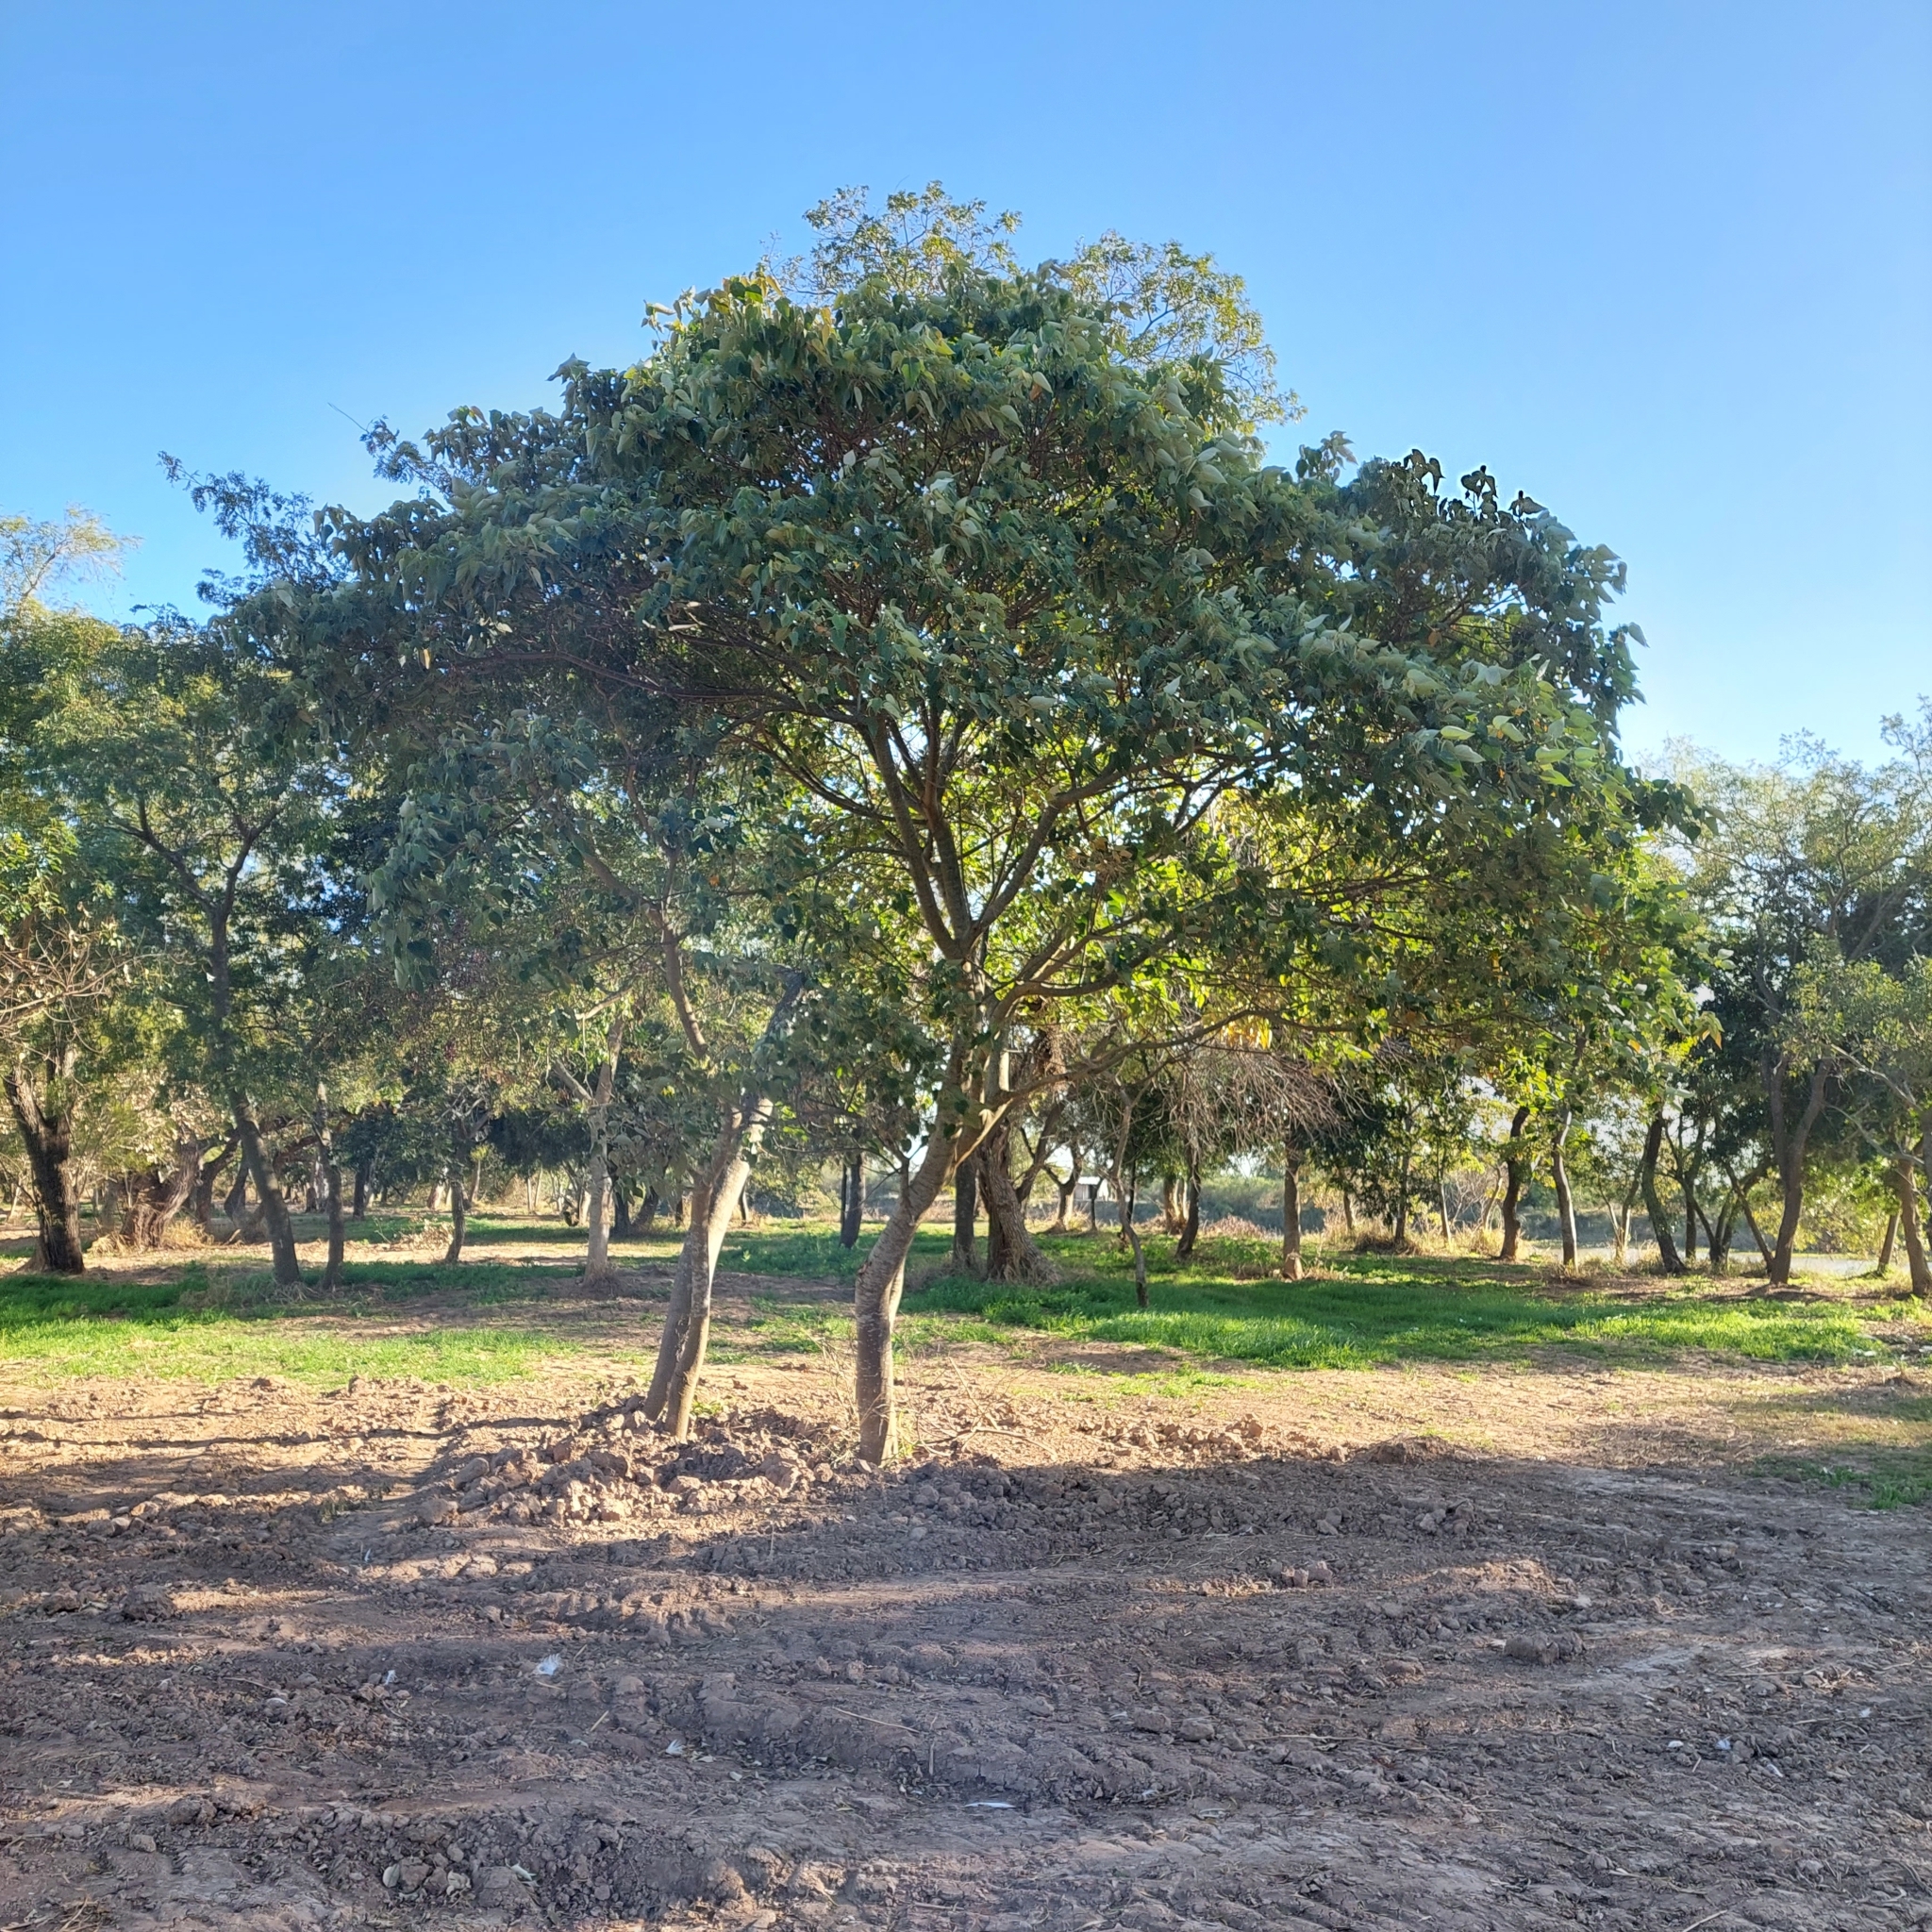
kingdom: Plantae
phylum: Tracheophyta
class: Magnoliopsida
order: Malpighiales
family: Euphorbiaceae
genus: Croton
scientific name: Croton urucurana
